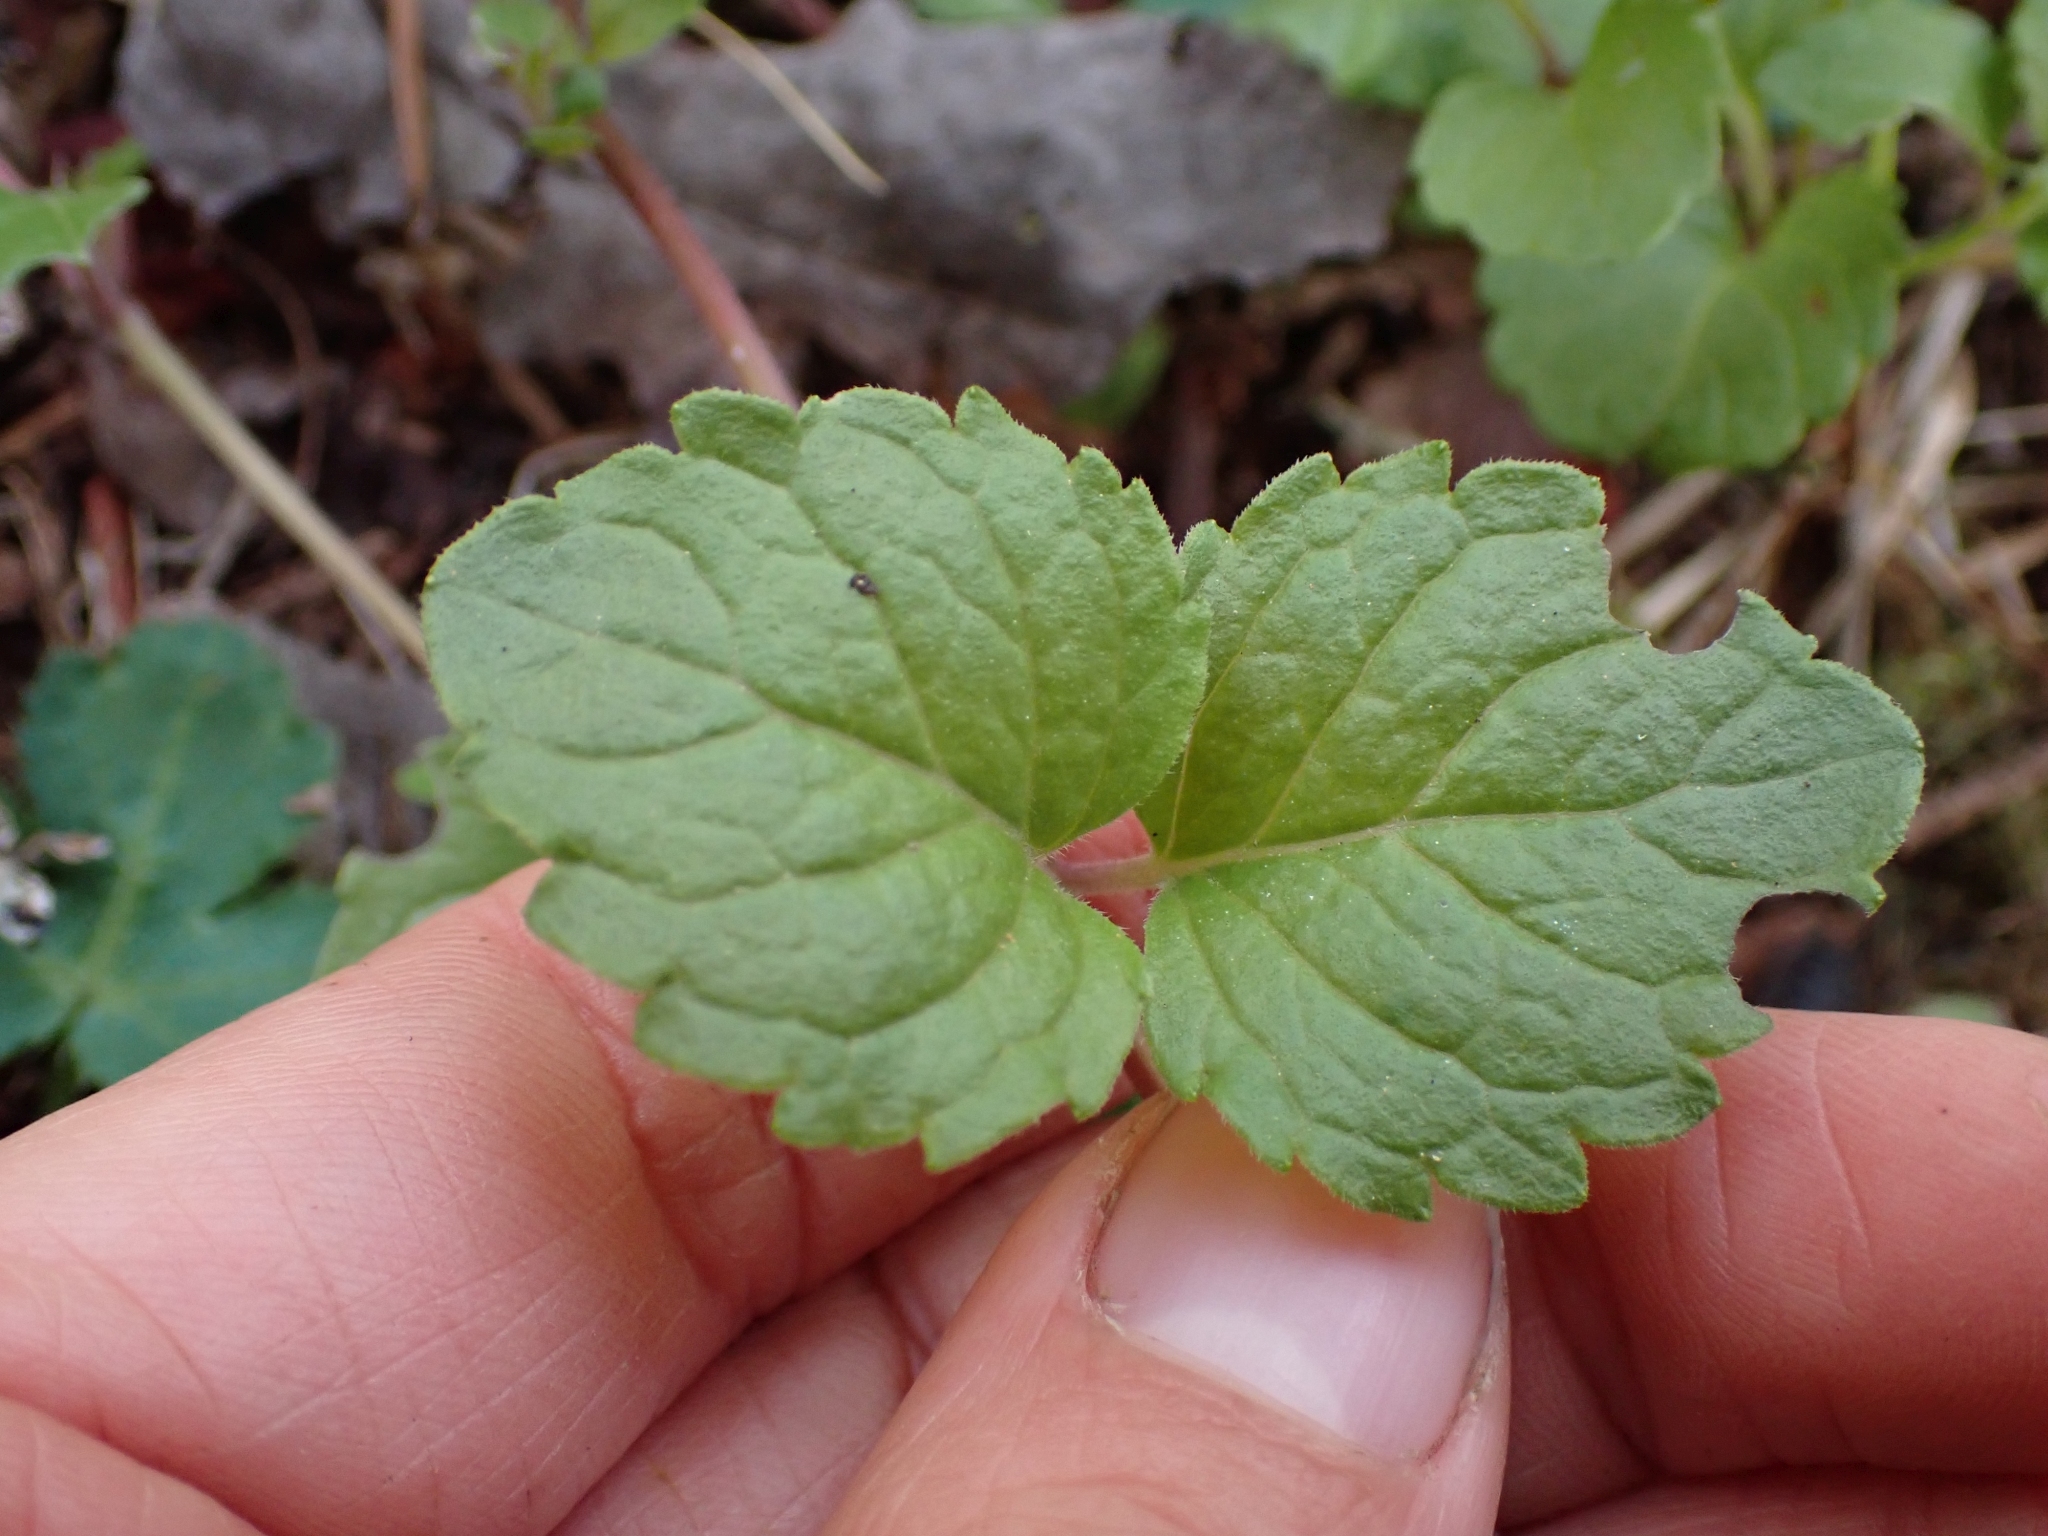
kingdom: Plantae
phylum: Tracheophyta
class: Magnoliopsida
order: Lamiales
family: Lamiaceae
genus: Micromeria
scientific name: Micromeria douglasii
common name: Yerba buena
